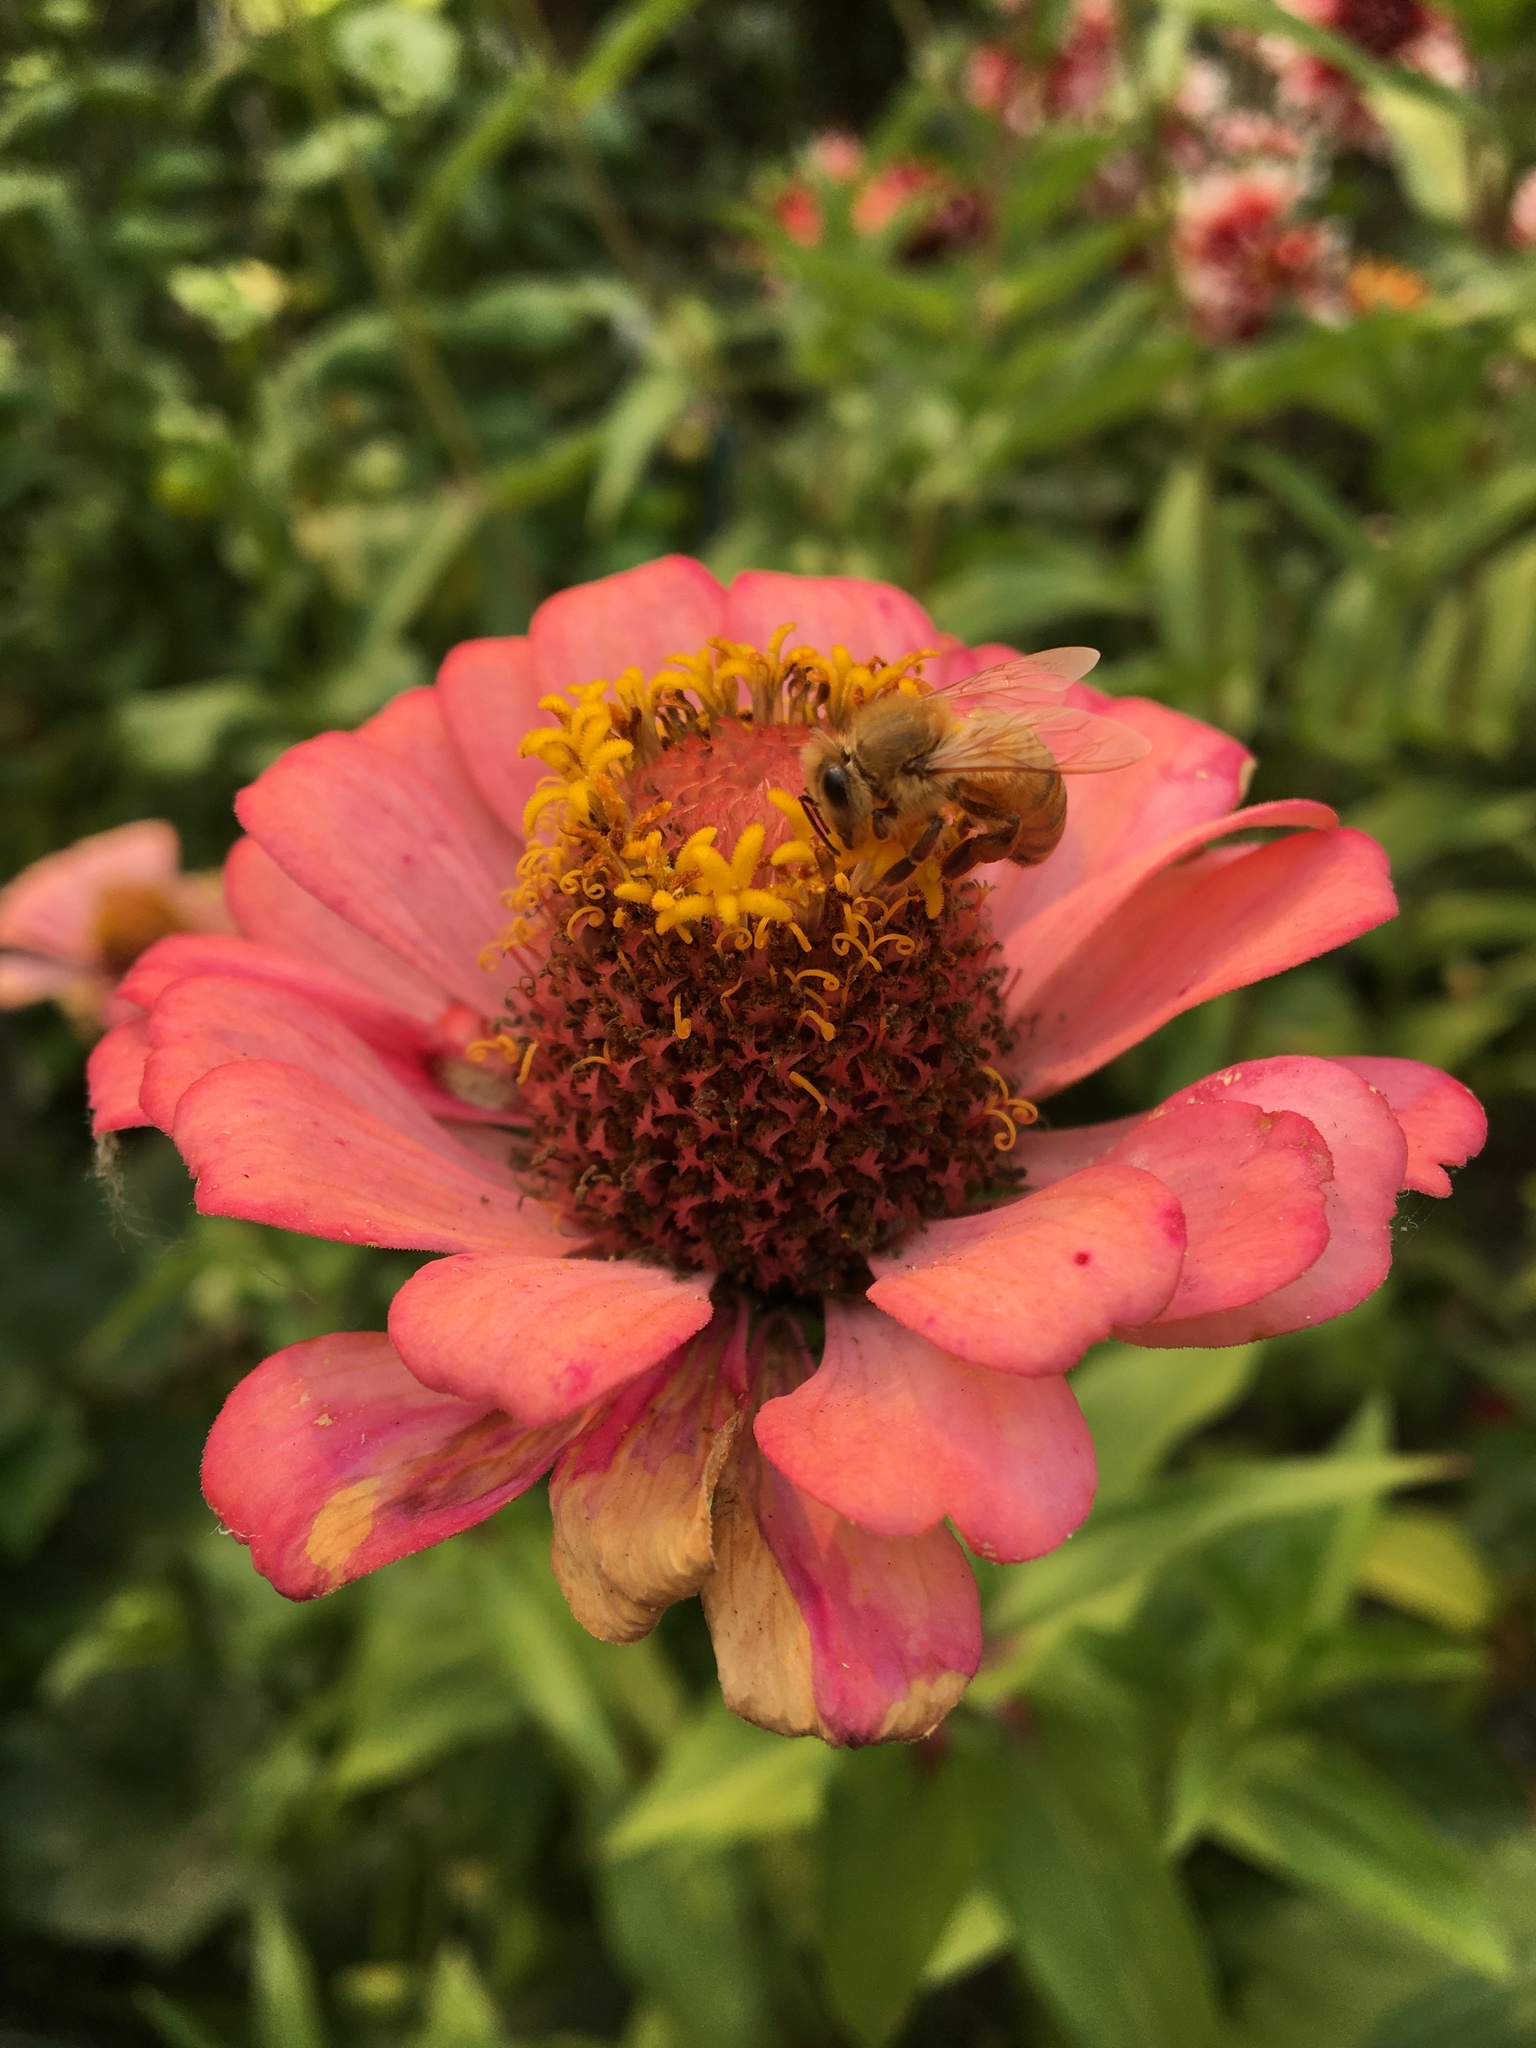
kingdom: Animalia
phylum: Arthropoda
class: Insecta
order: Hymenoptera
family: Apidae
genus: Apis
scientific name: Apis mellifera
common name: Honey bee
